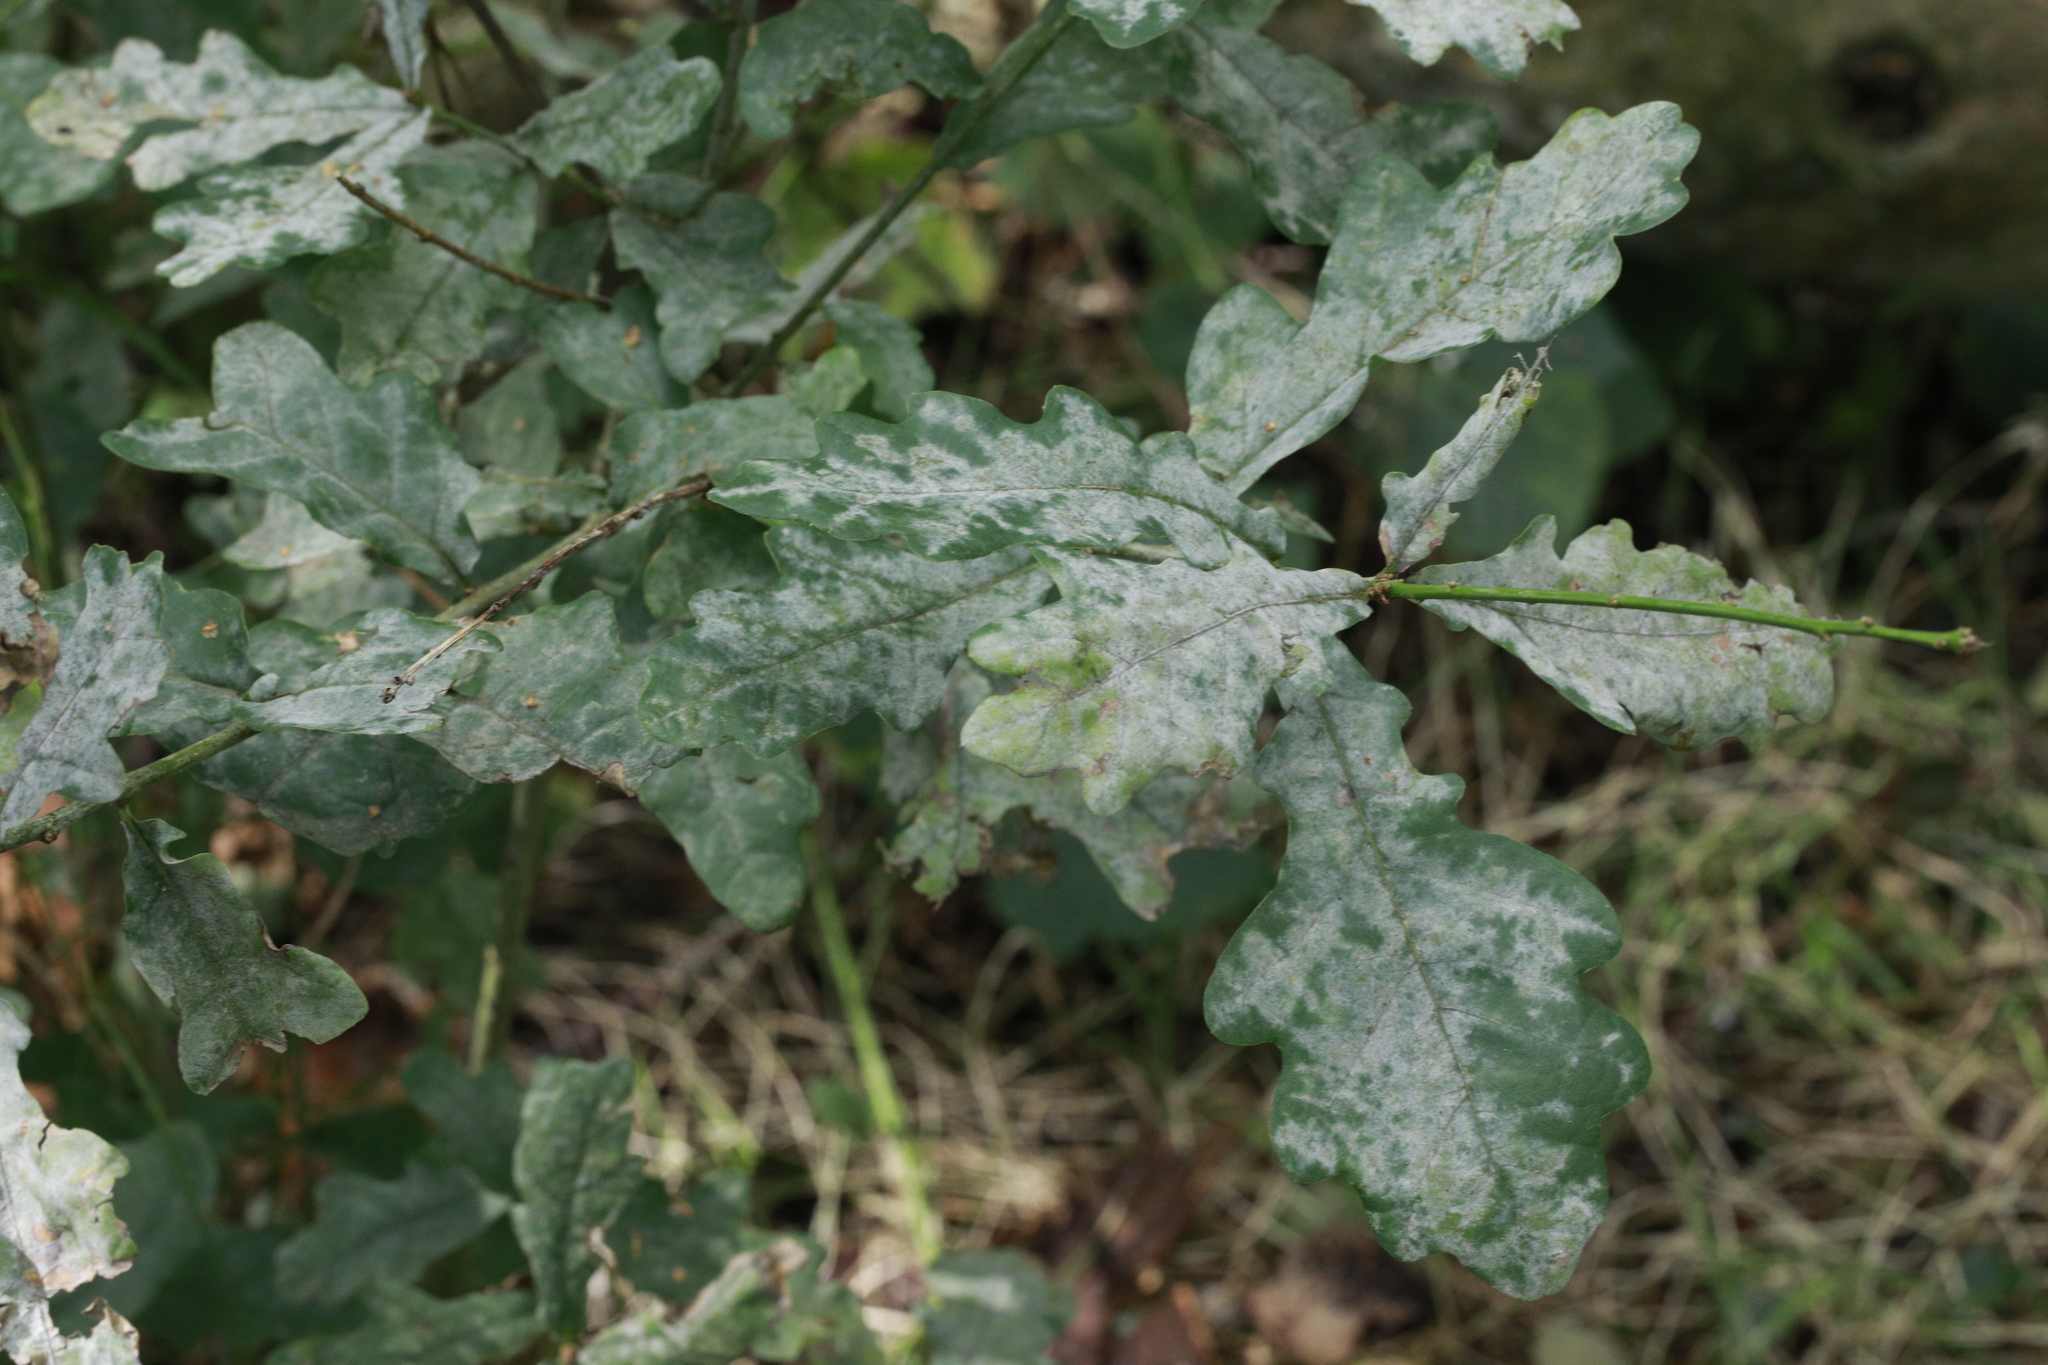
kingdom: Fungi
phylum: Ascomycota
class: Leotiomycetes
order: Helotiales
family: Erysiphaceae
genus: Erysiphe
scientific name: Erysiphe alphitoides
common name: Oak mildew
